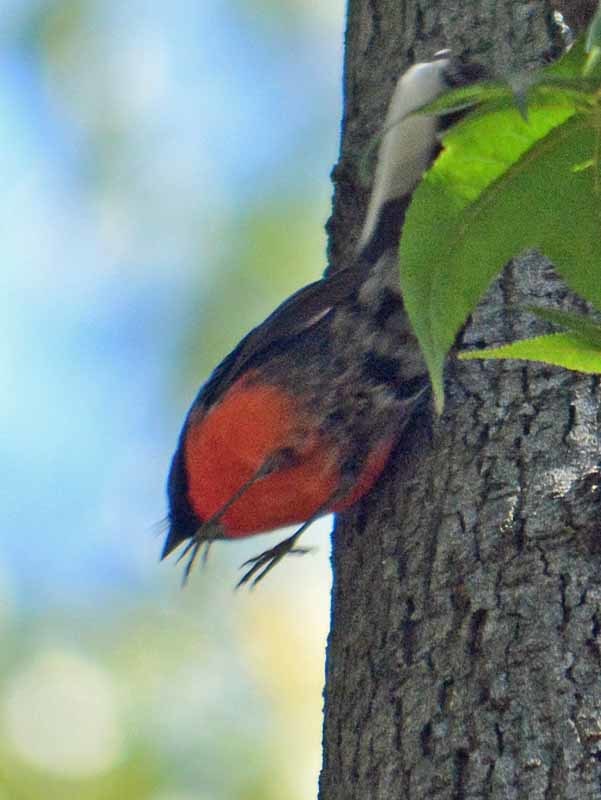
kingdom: Animalia
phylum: Chordata
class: Aves
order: Passeriformes
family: Parulidae
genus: Myioborus
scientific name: Myioborus miniatus
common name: Slate-throated redstart
